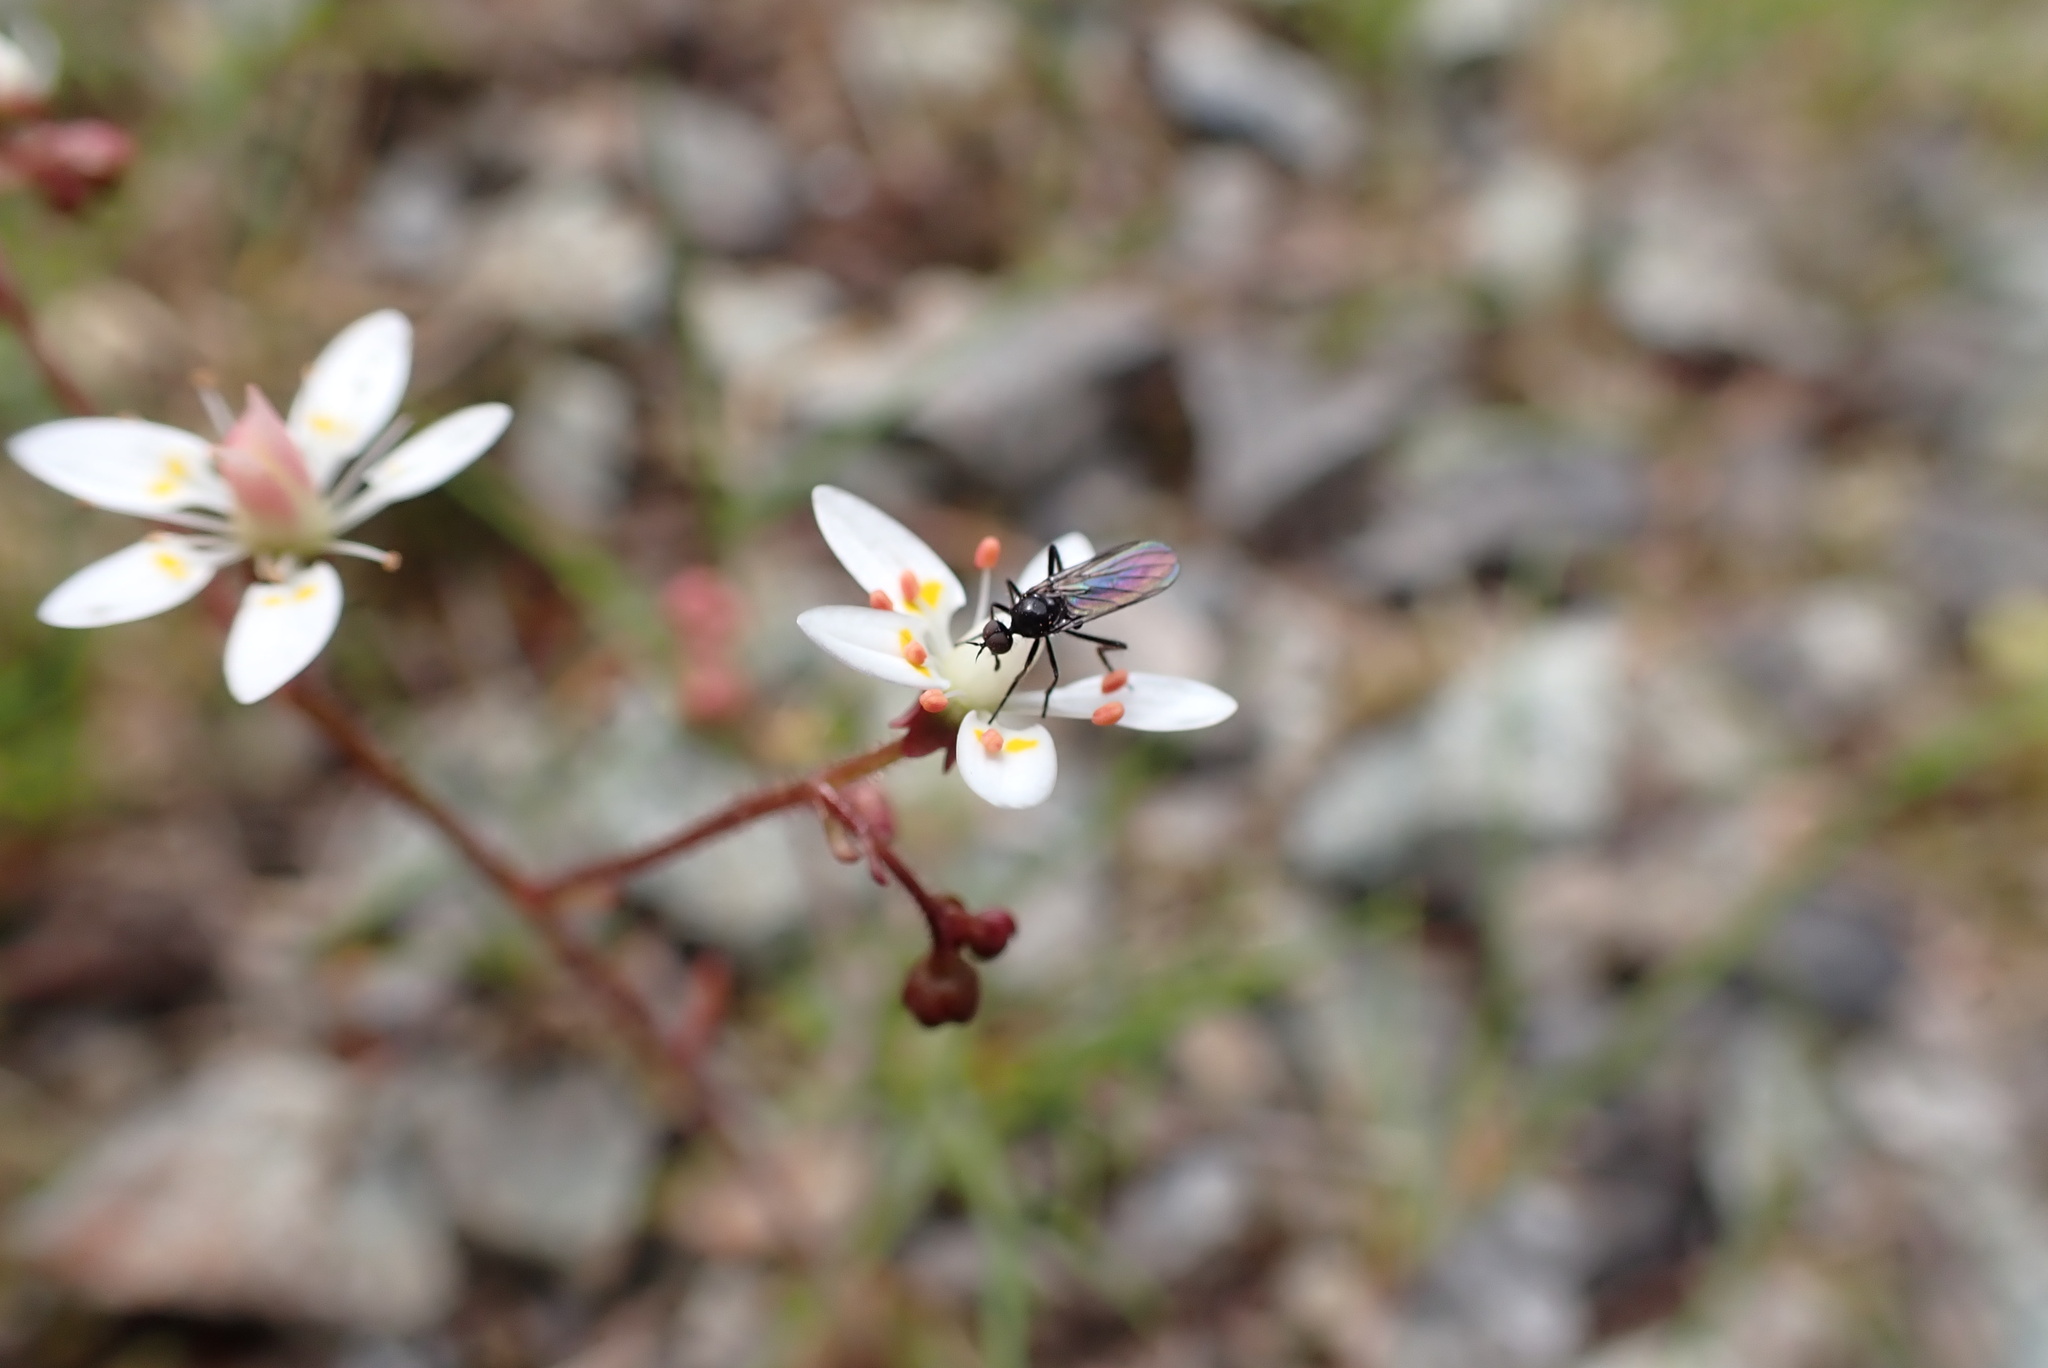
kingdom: Plantae
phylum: Tracheophyta
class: Magnoliopsida
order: Saxifragales
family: Saxifragaceae
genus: Micranthes
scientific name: Micranthes ferruginea
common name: Rusty saxifrage
